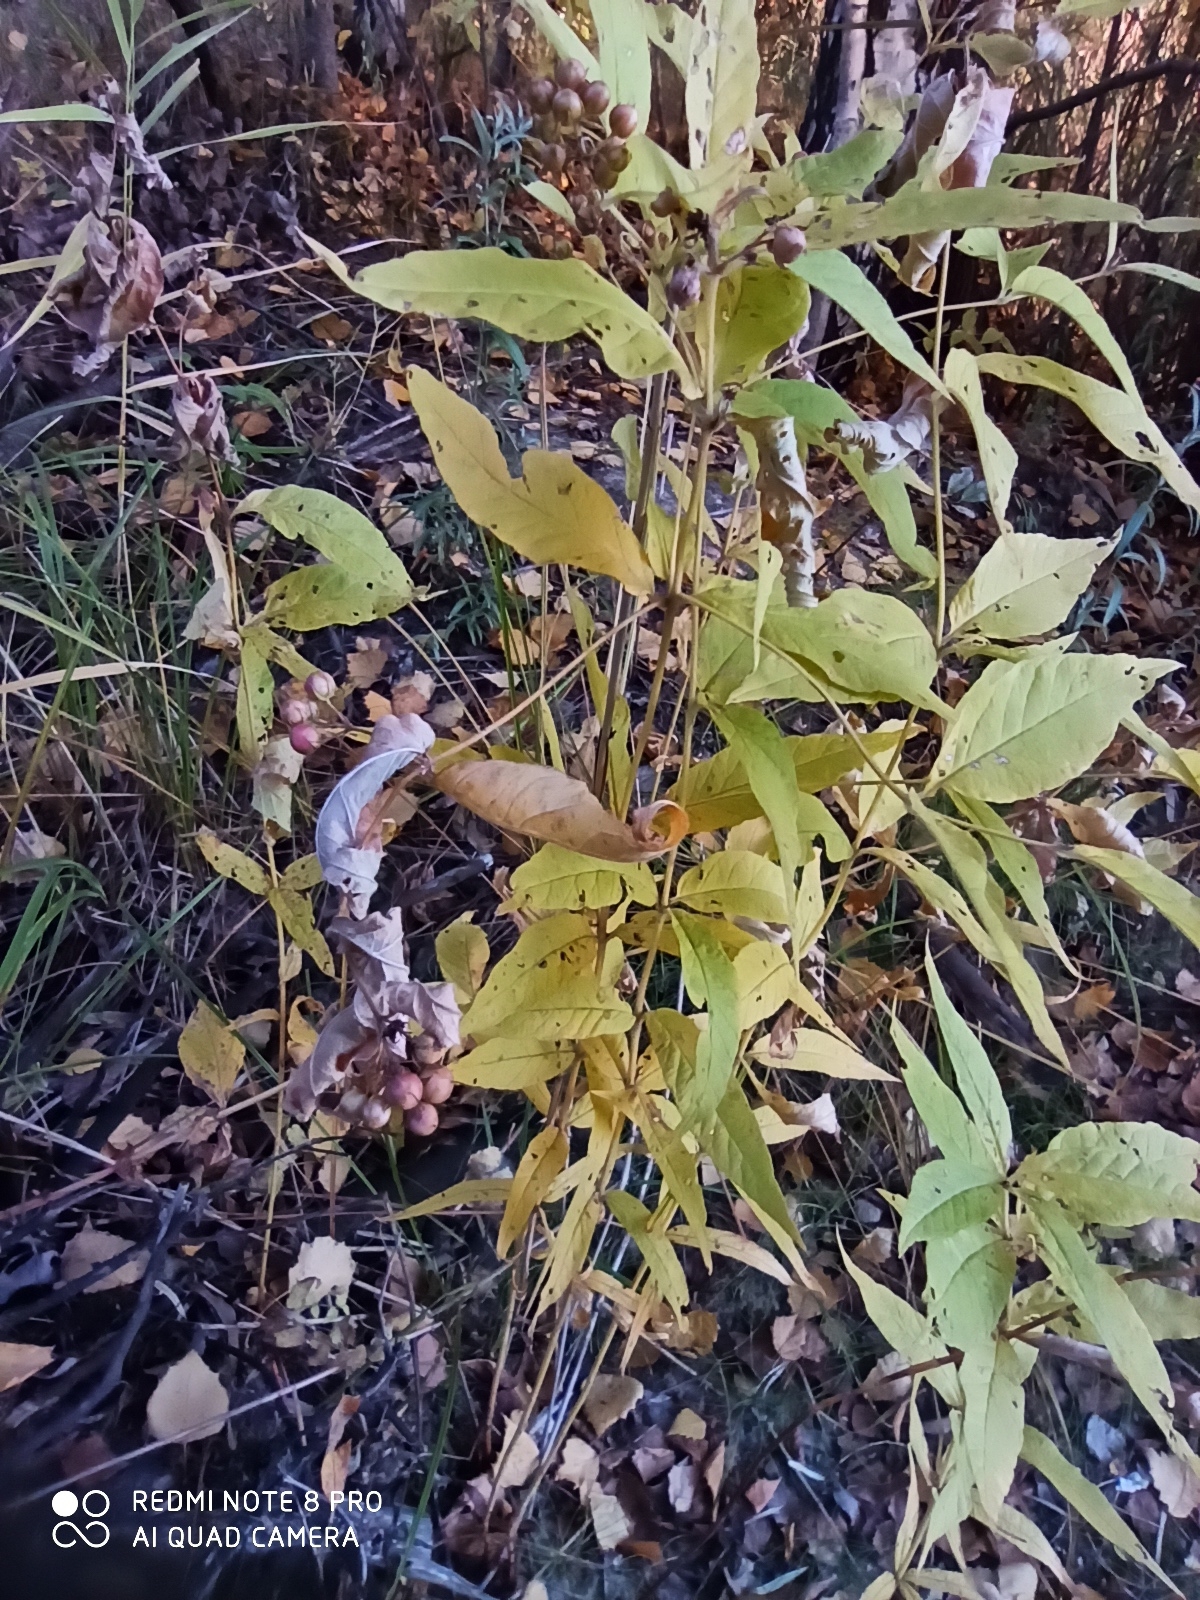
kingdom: Plantae
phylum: Tracheophyta
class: Magnoliopsida
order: Ericales
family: Primulaceae
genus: Lysimachia
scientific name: Lysimachia vulgaris
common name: Yellow loosestrife
